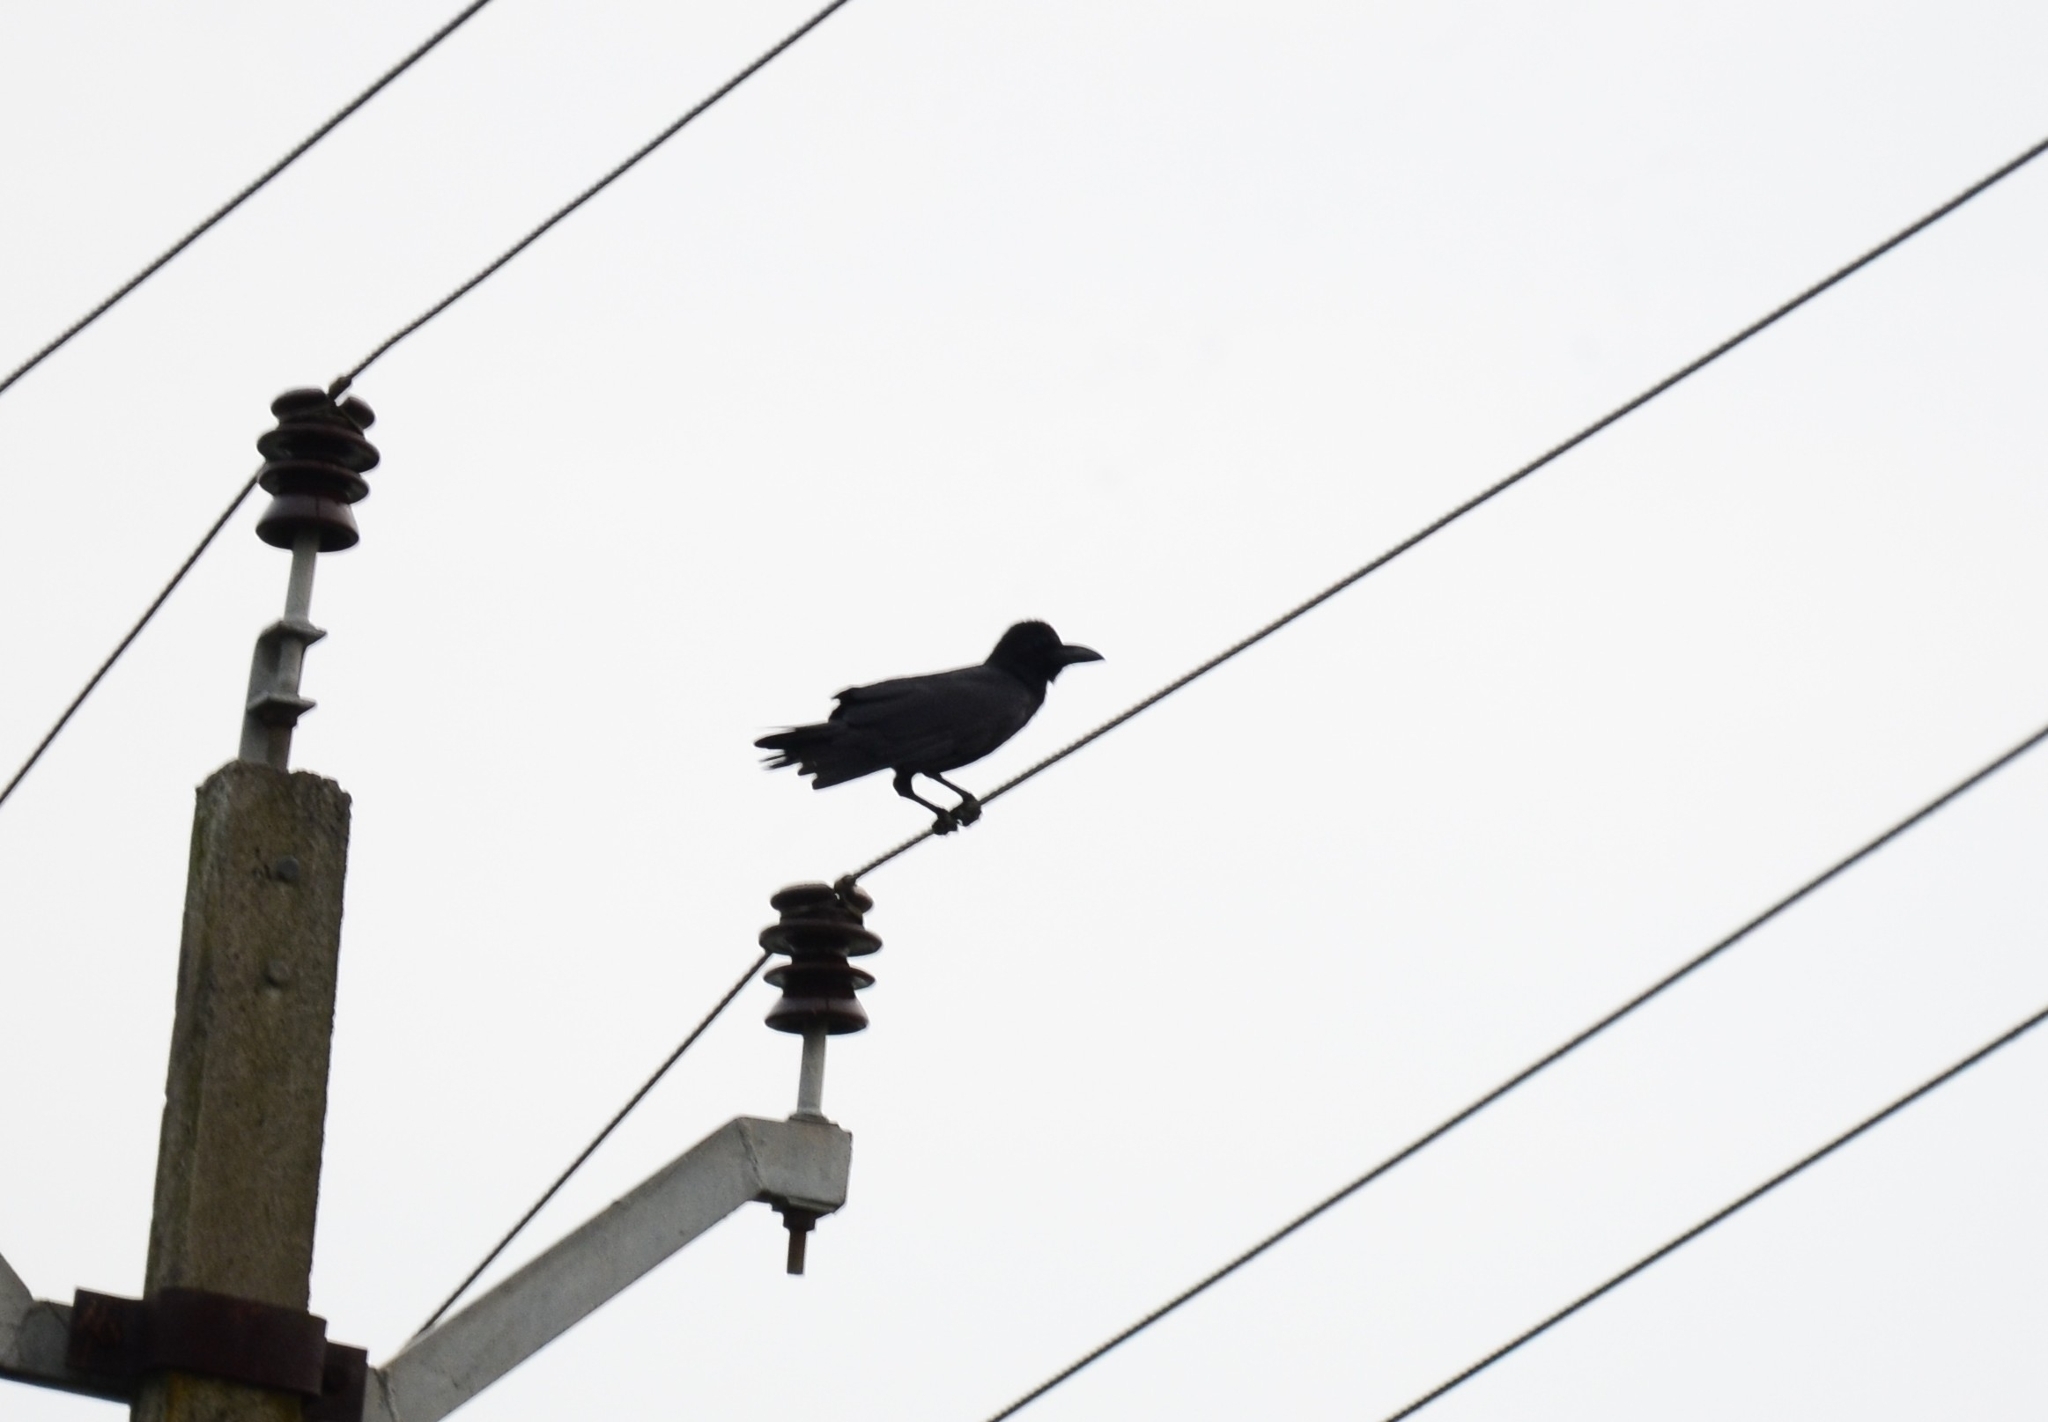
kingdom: Animalia
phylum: Chordata
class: Aves
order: Passeriformes
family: Corvidae
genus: Corvus
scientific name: Corvus macrorhynchos
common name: Large-billed crow
